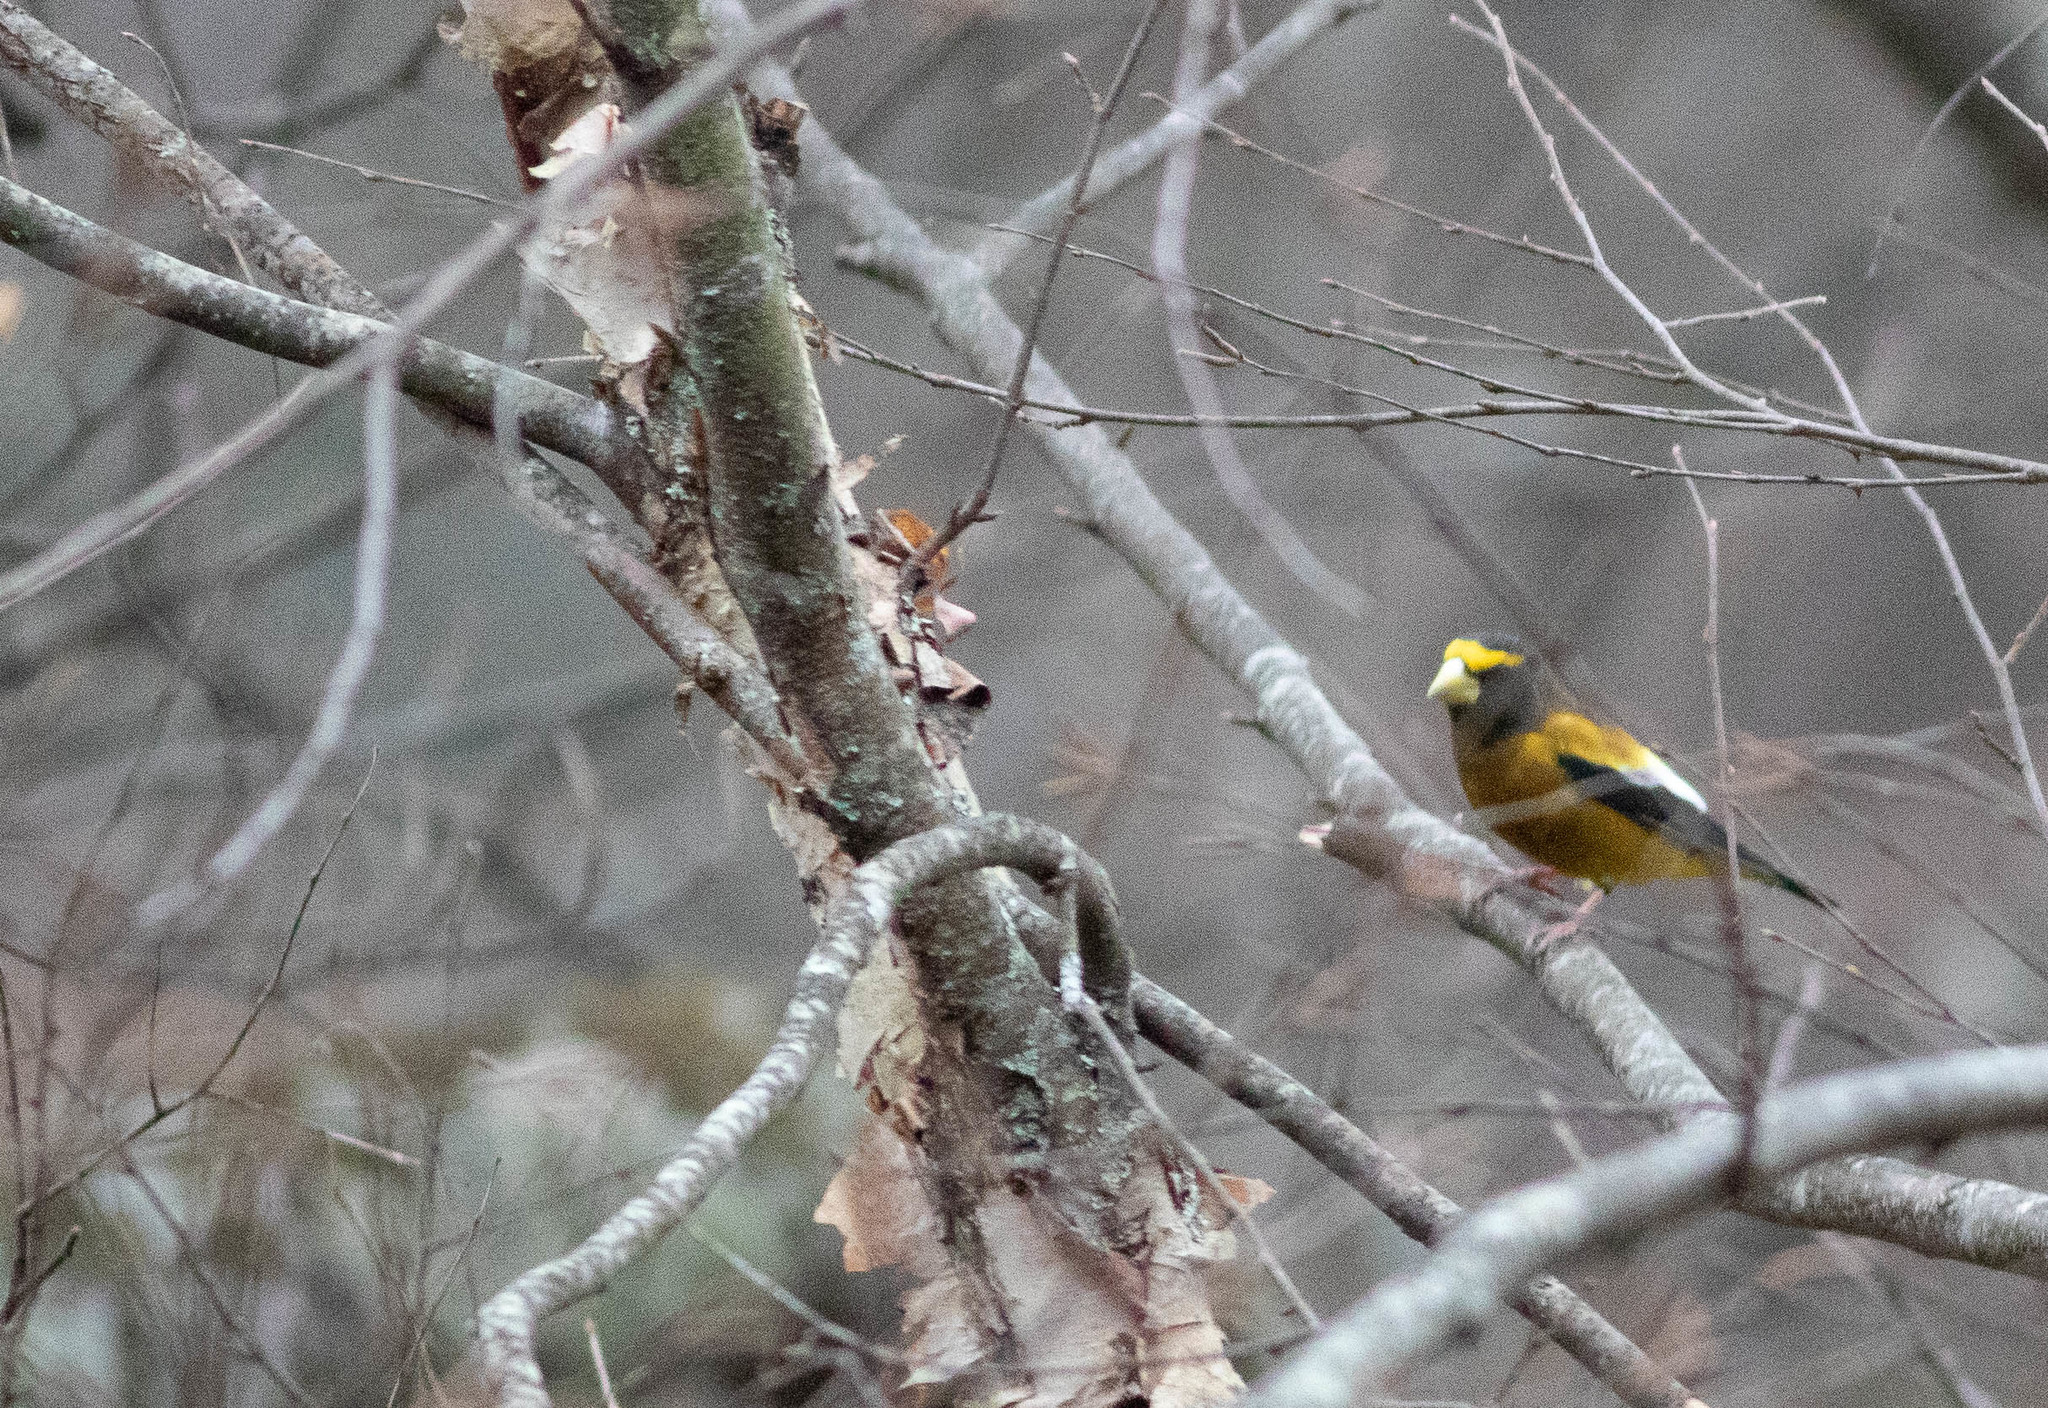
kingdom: Animalia
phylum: Chordata
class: Aves
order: Passeriformes
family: Fringillidae
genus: Hesperiphona
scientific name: Hesperiphona vespertina
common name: Evening grosbeak
